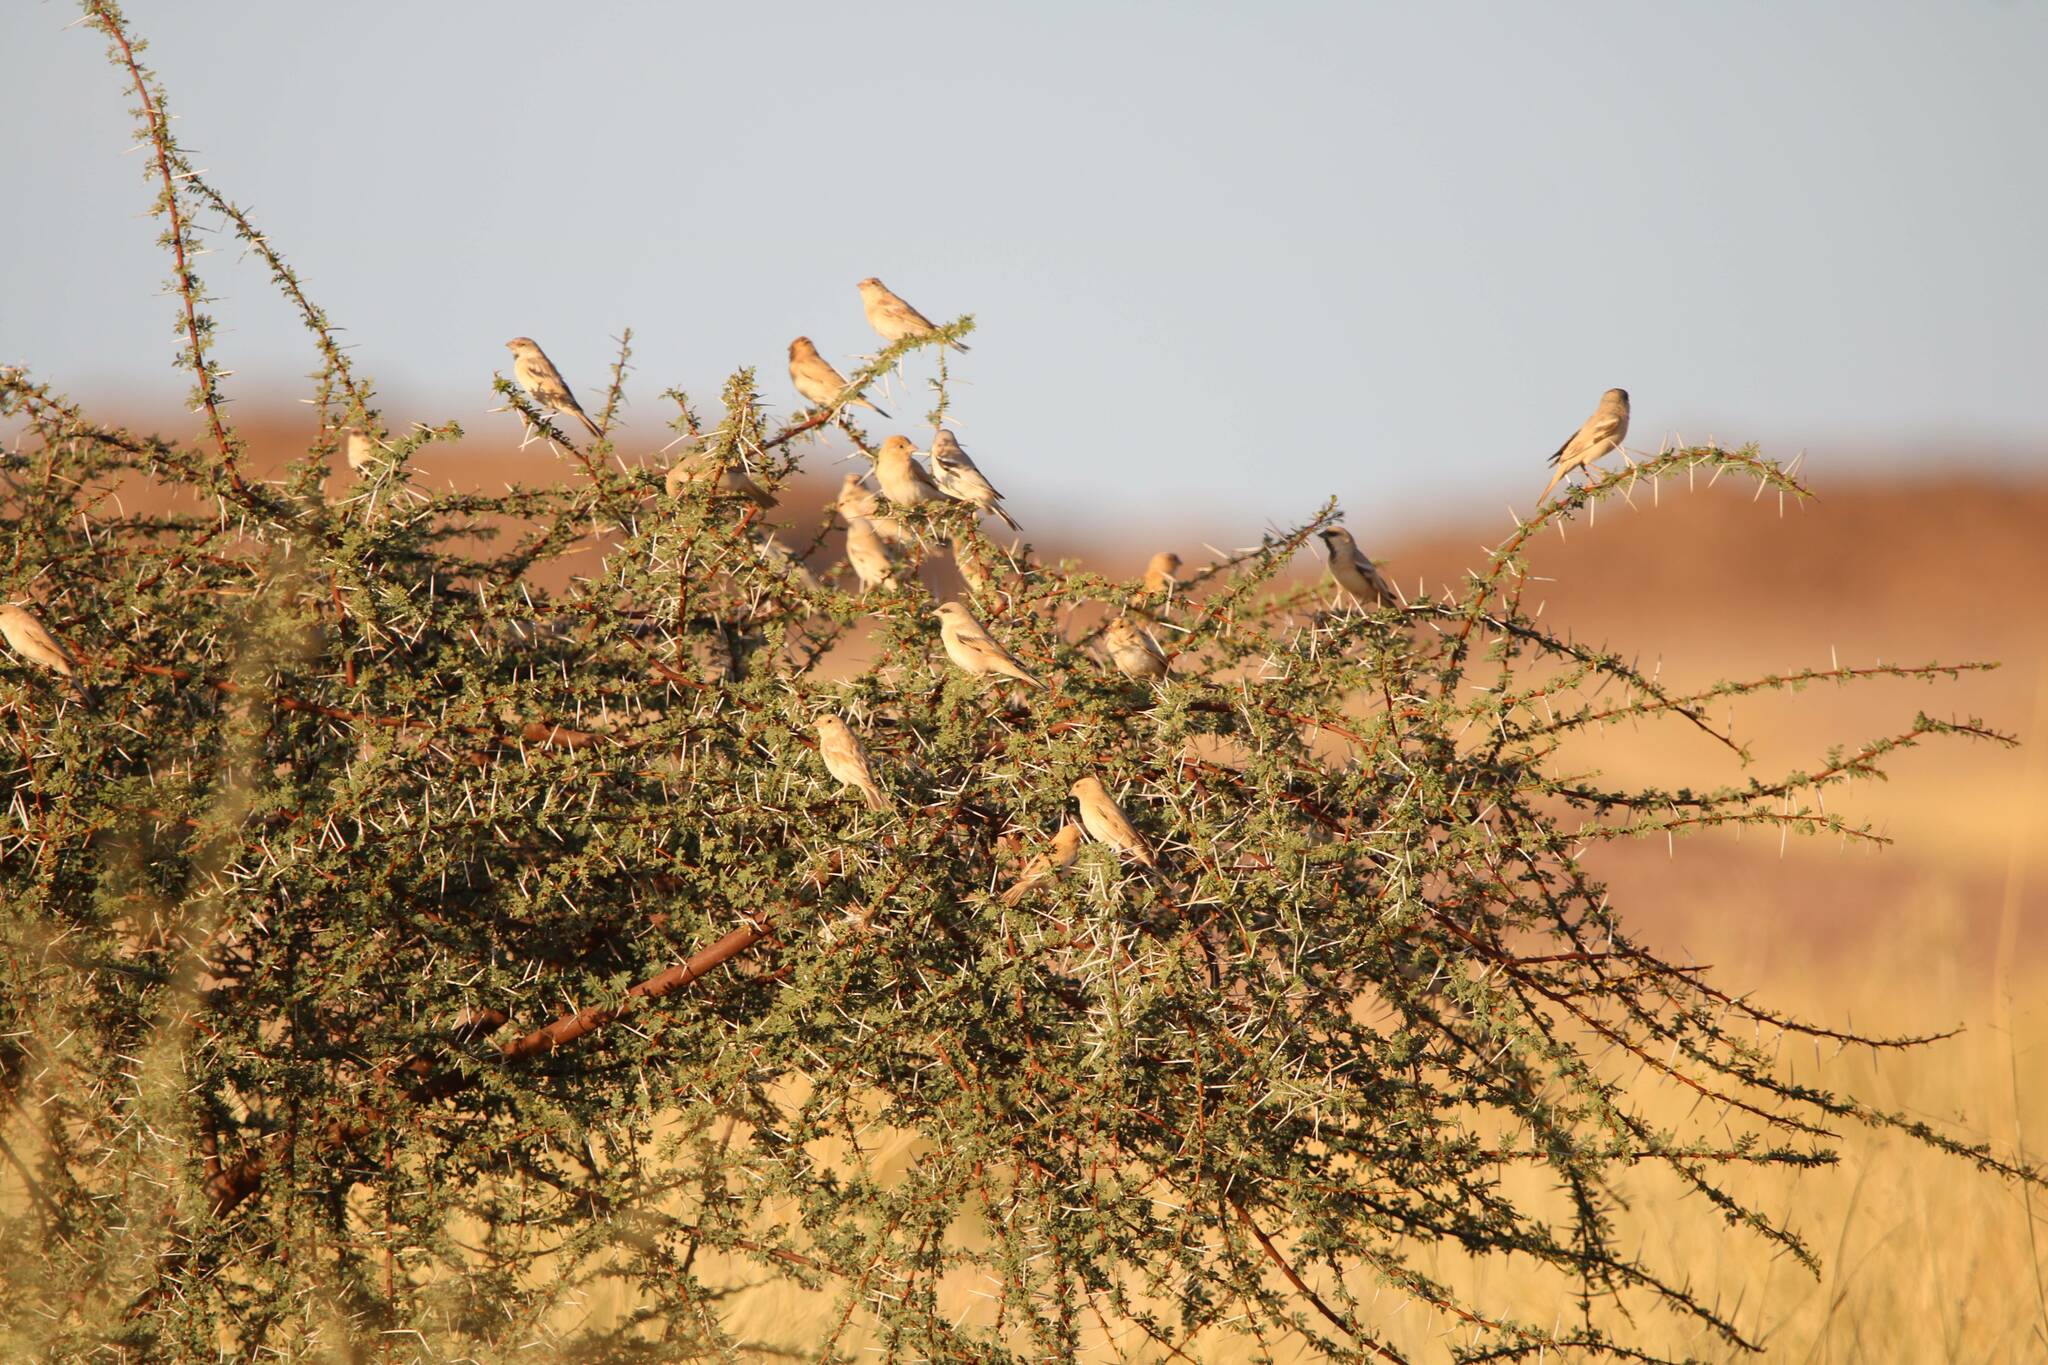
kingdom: Animalia
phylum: Chordata
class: Aves
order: Passeriformes
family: Passeridae
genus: Passer
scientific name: Passer simplex
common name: Desert sparrow
